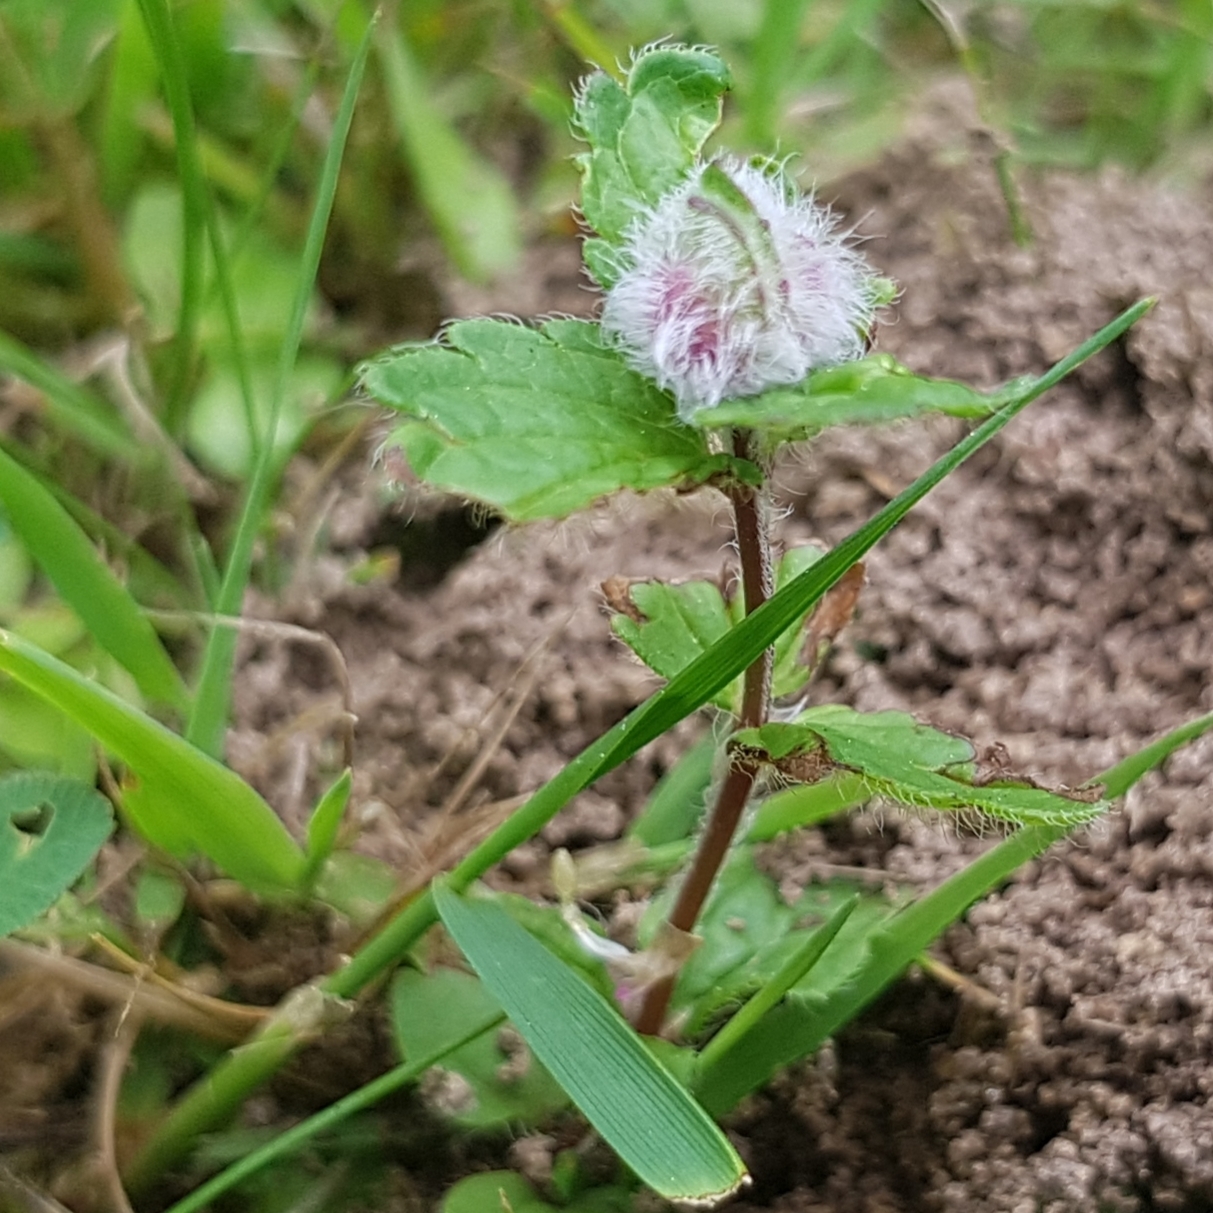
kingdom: Animalia
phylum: Arthropoda
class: Insecta
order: Diptera
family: Cecidomyiidae
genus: Jaapiella
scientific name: Jaapiella veronicae
